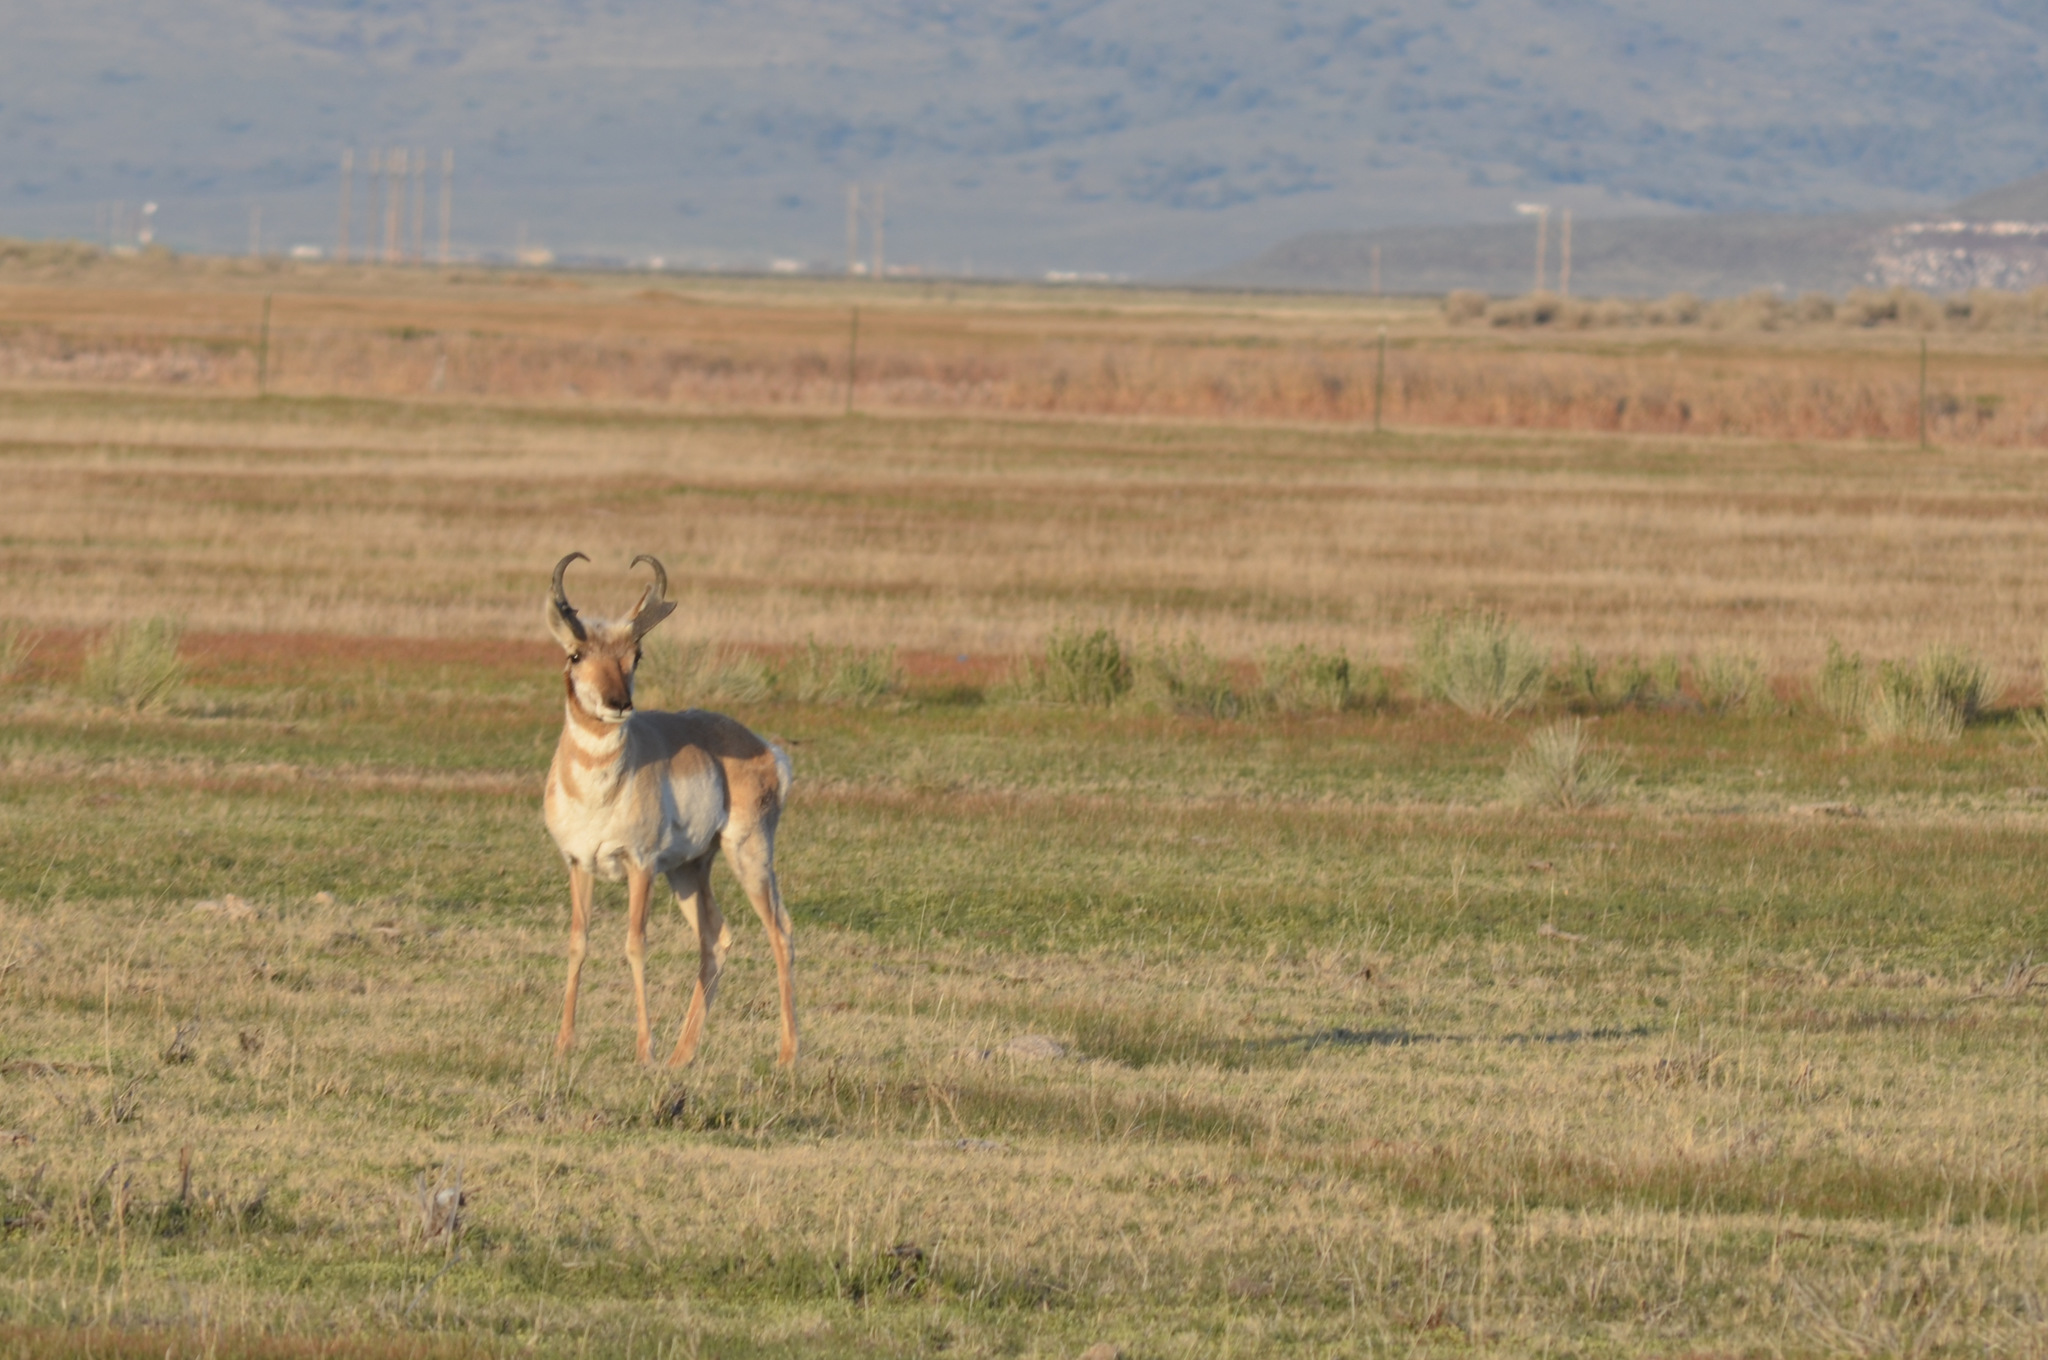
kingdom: Animalia
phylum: Chordata
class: Mammalia
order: Artiodactyla
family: Antilocapridae
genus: Antilocapra
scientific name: Antilocapra americana
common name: Pronghorn
